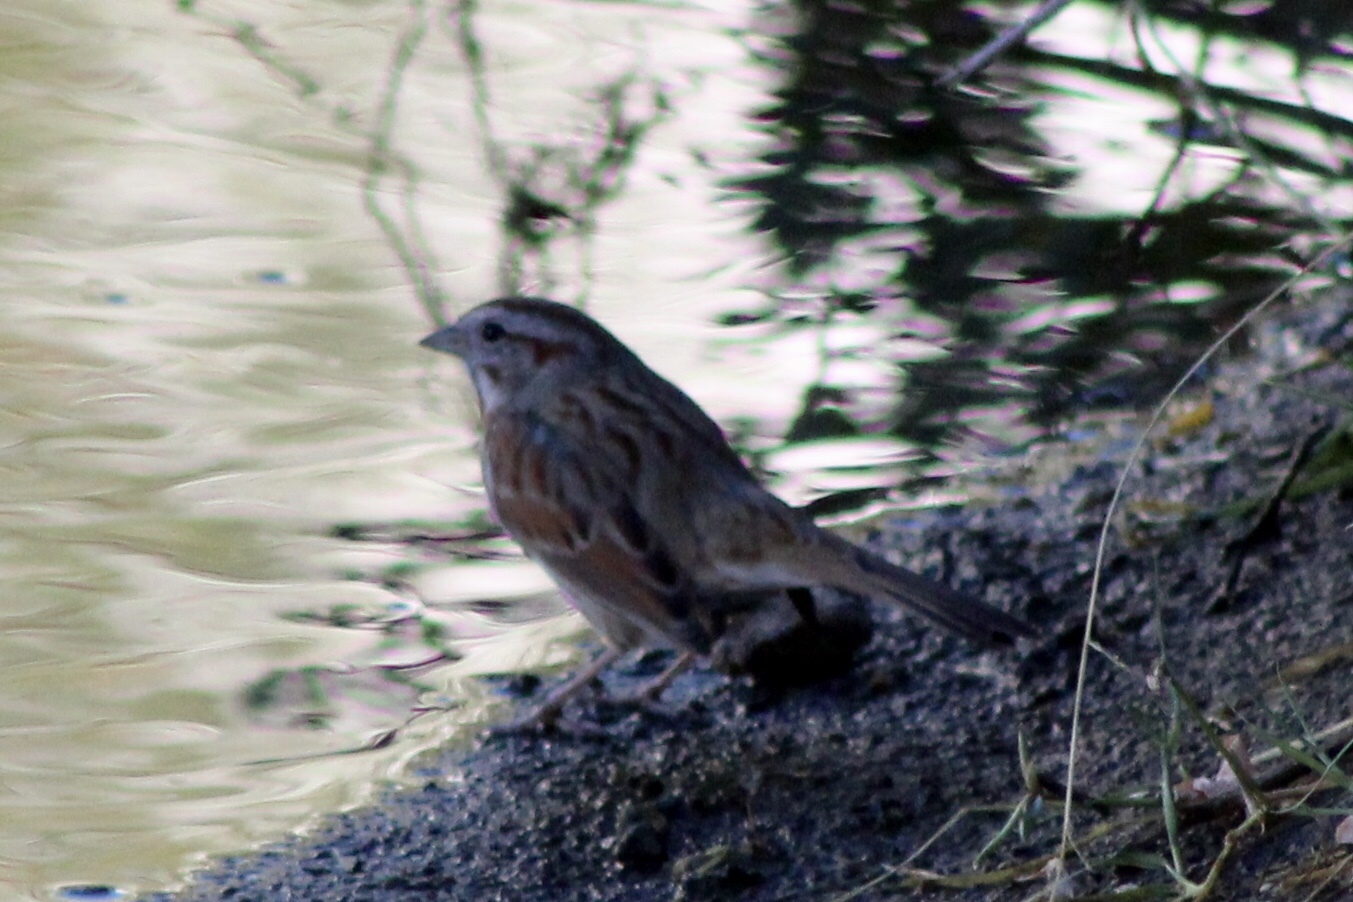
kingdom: Animalia
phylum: Chordata
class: Aves
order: Passeriformes
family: Passerellidae
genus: Melospiza
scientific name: Melospiza melodia
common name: Song sparrow
